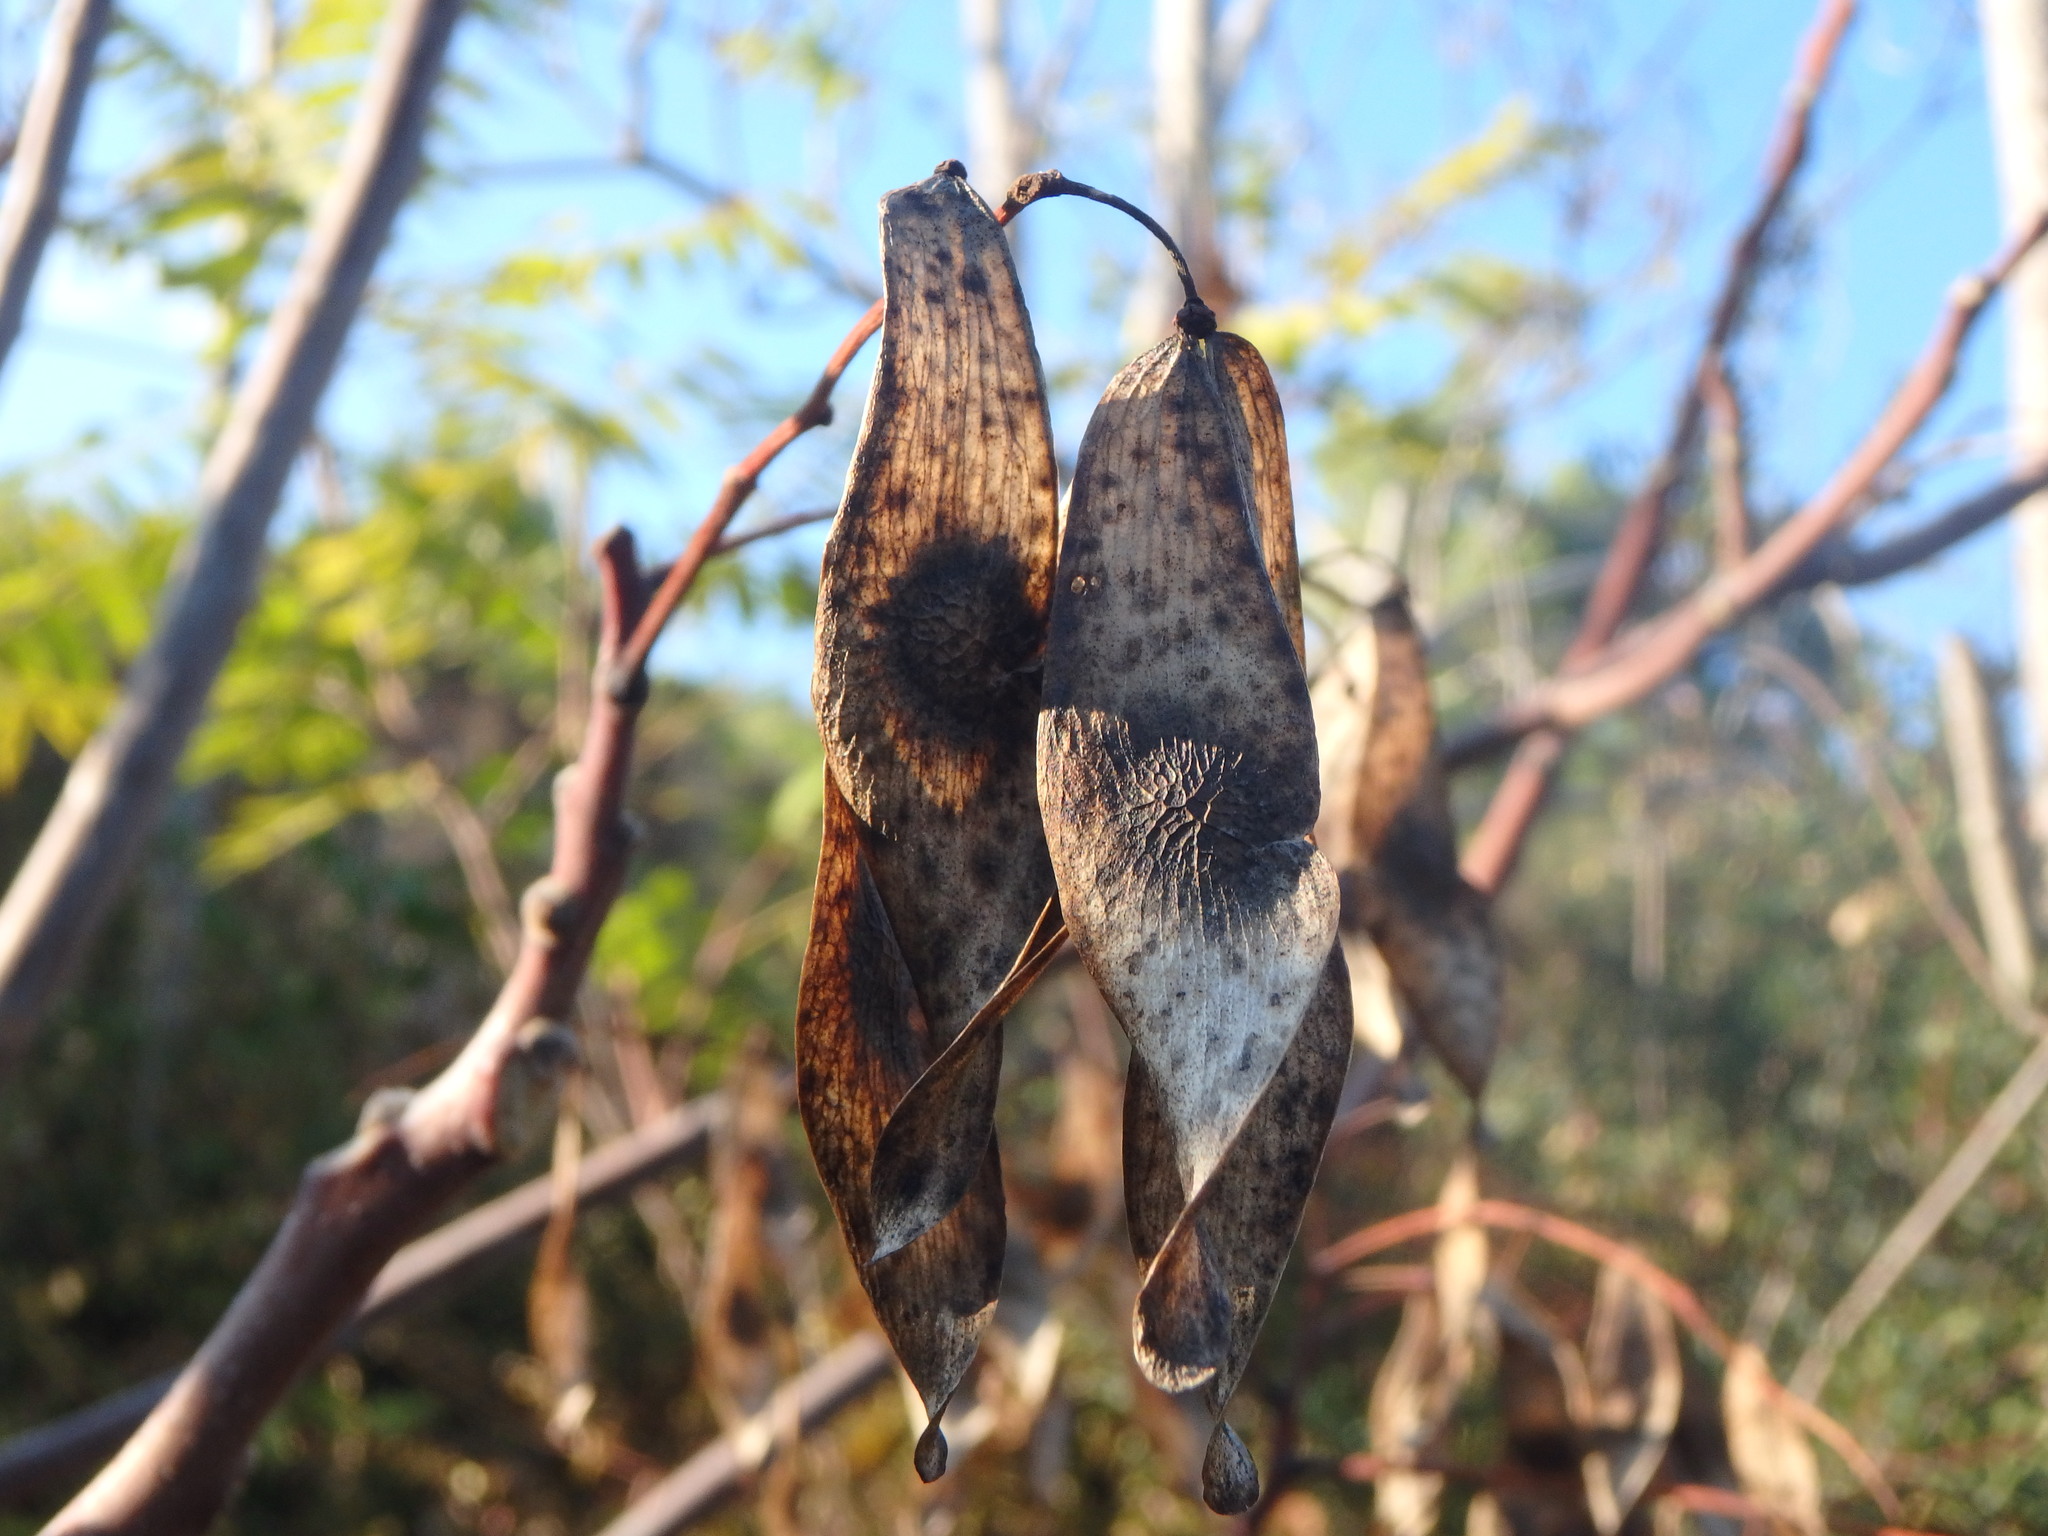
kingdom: Plantae
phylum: Tracheophyta
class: Magnoliopsida
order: Sapindales
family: Simaroubaceae
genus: Ailanthus
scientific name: Ailanthus altissima
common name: Tree-of-heaven
